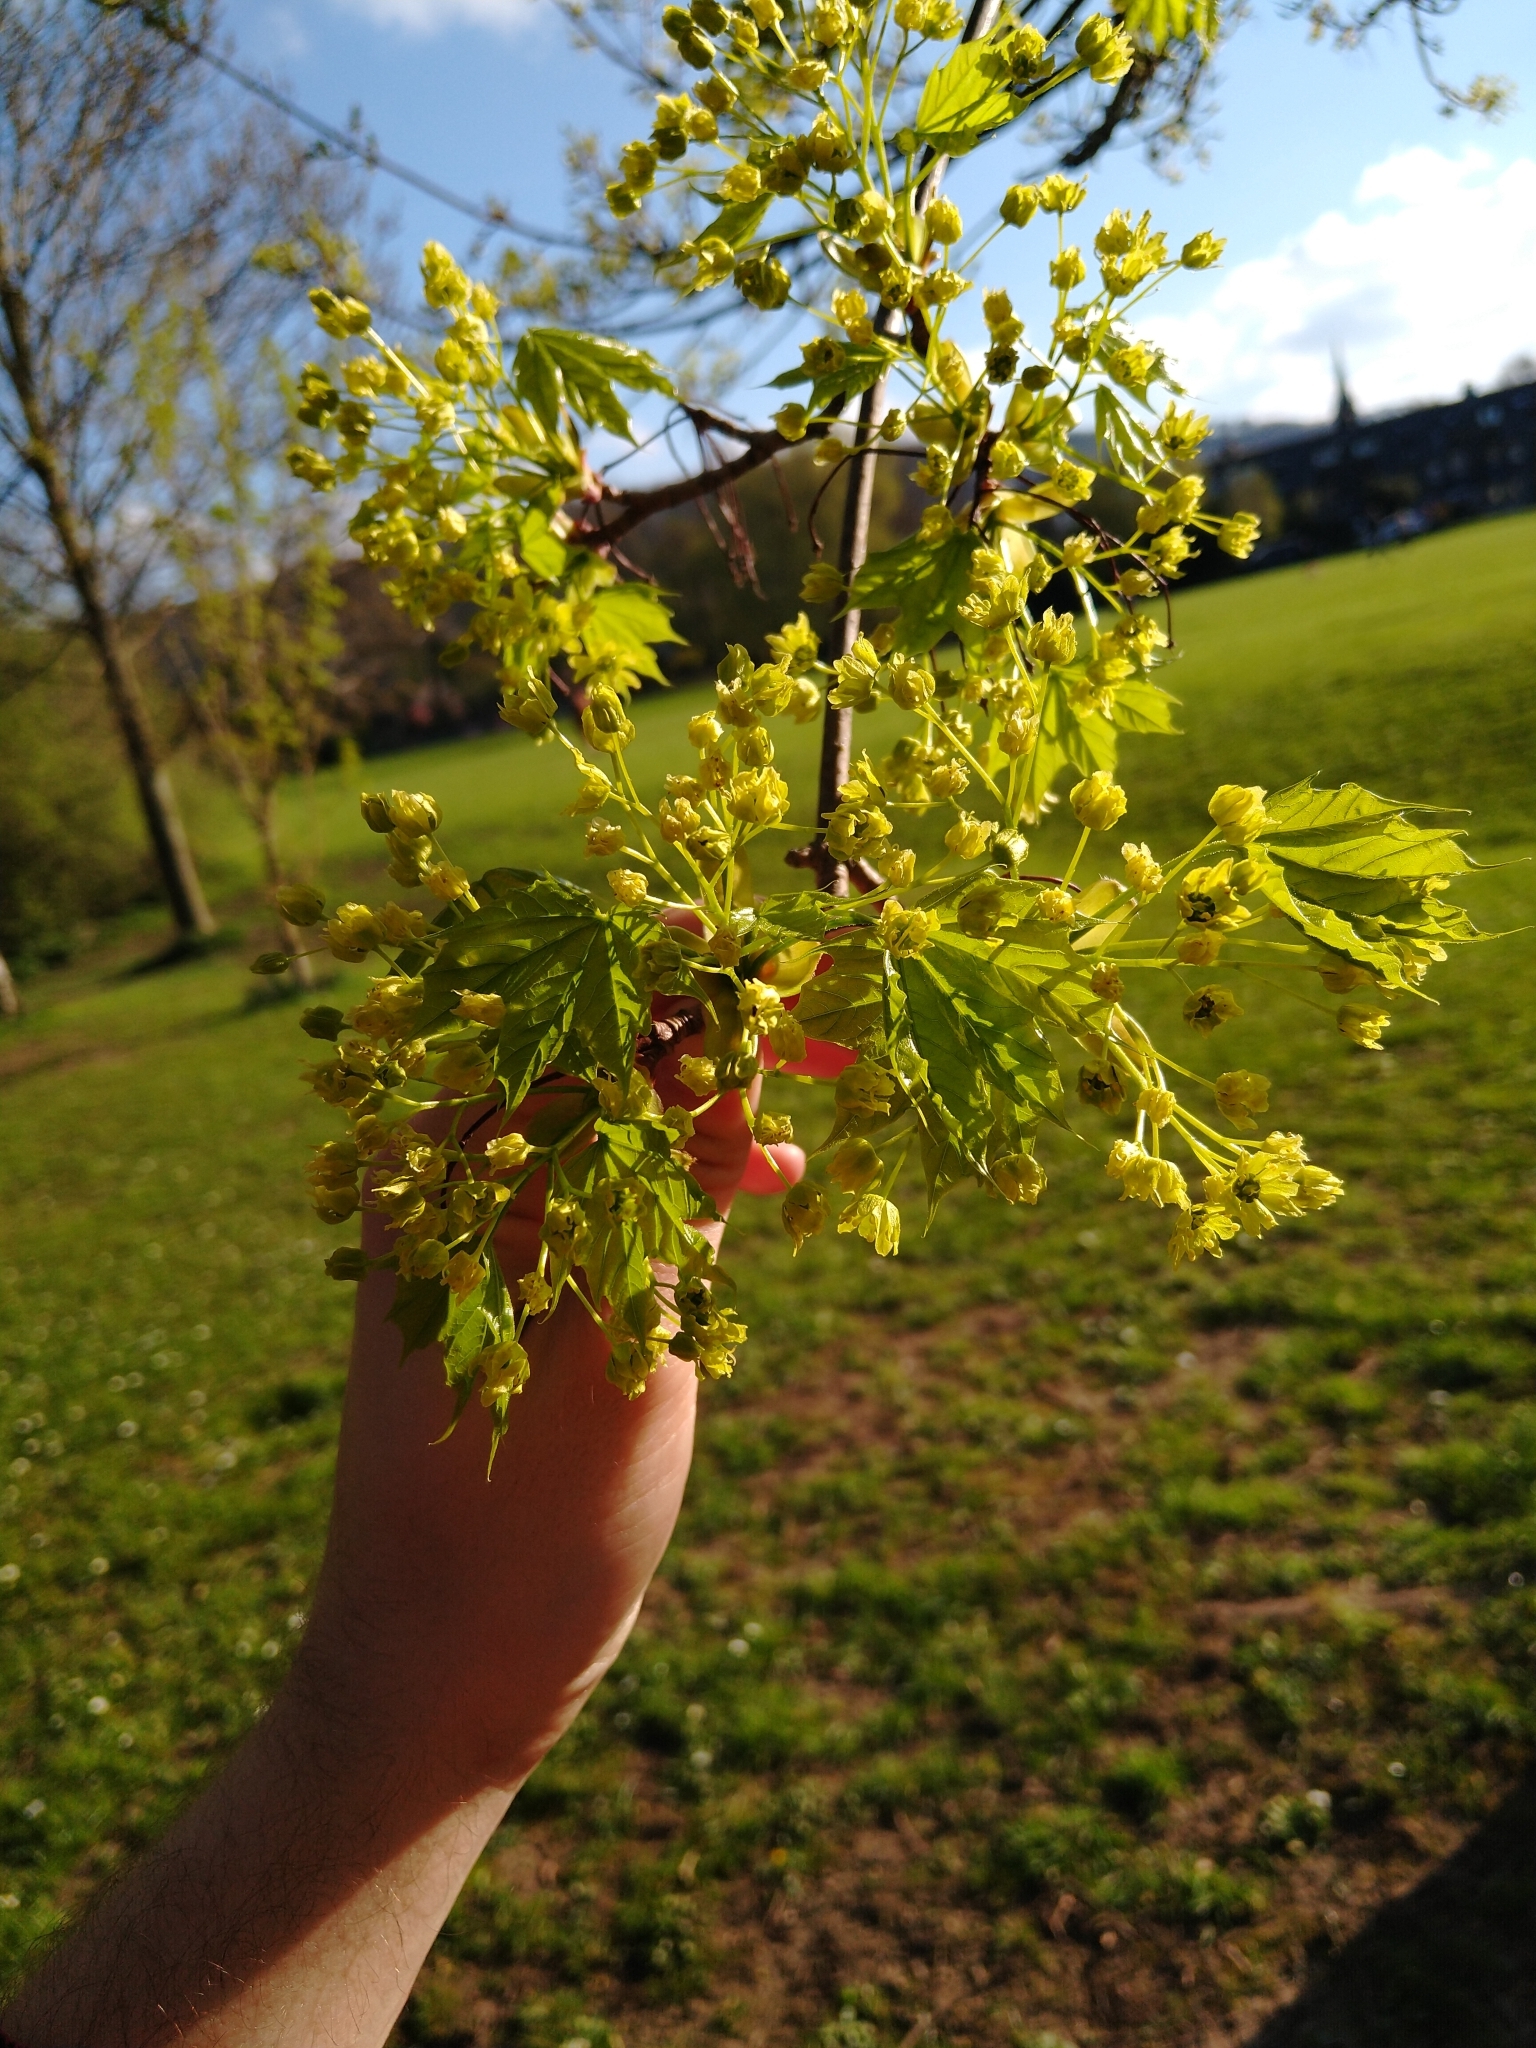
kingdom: Plantae
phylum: Tracheophyta
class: Magnoliopsida
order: Sapindales
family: Sapindaceae
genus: Acer
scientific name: Acer platanoides
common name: Norway maple
